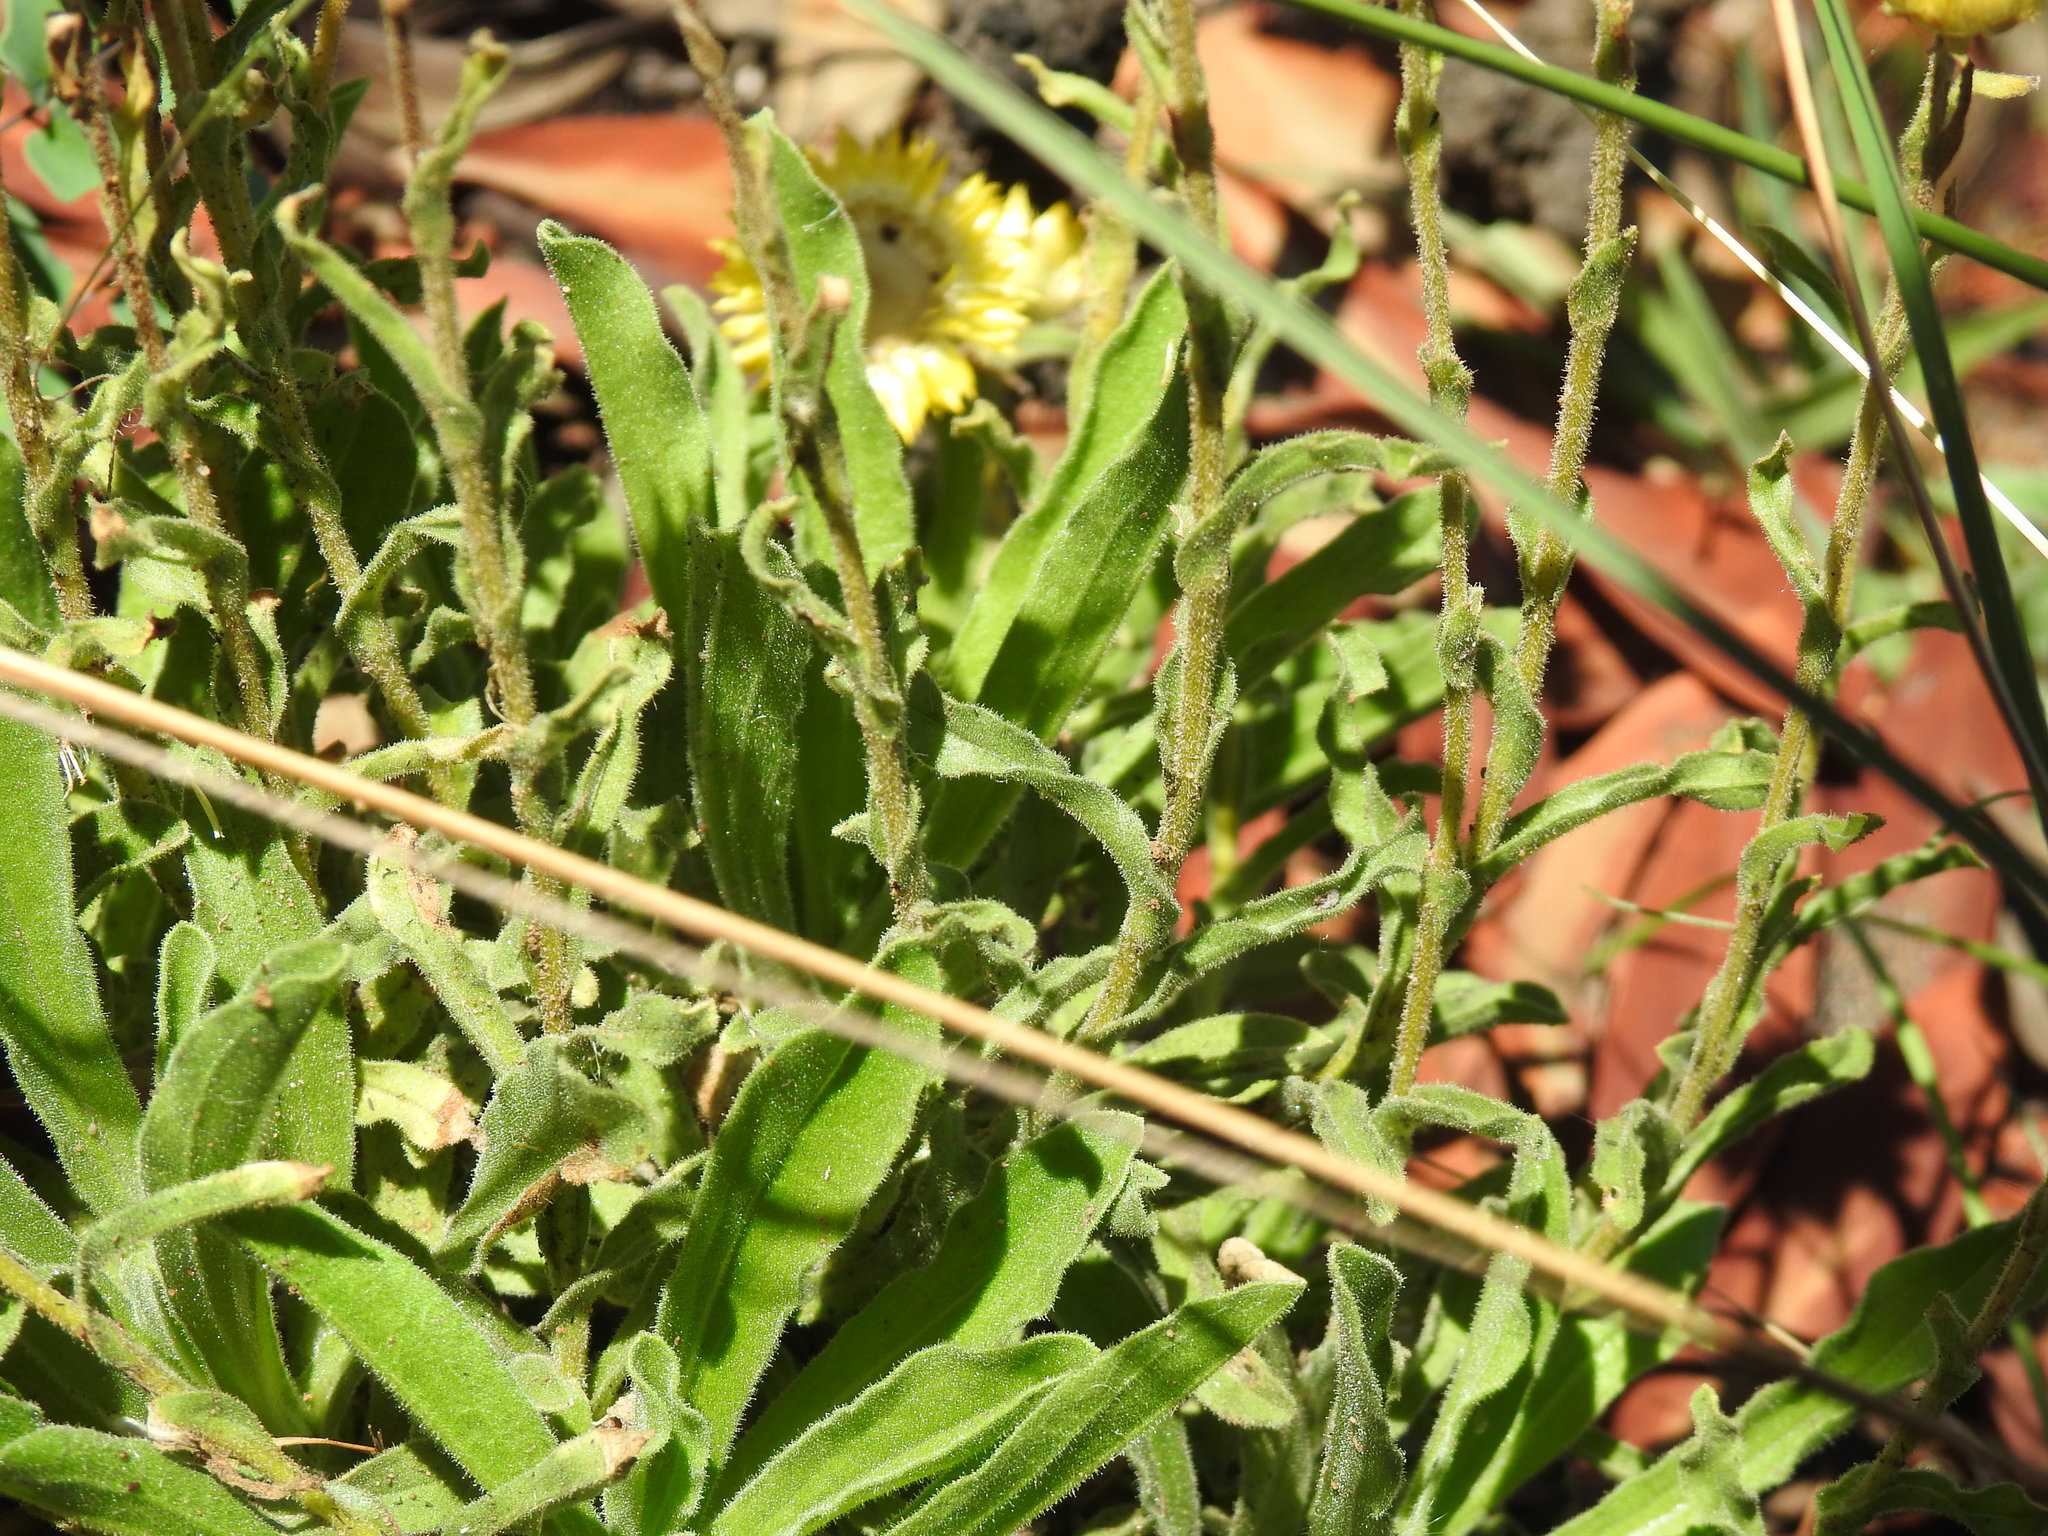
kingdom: Plantae
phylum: Tracheophyta
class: Magnoliopsida
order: Asterales
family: Asteraceae
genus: Helichrysum
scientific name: Helichrysum foetidum
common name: Stinking everlasting
